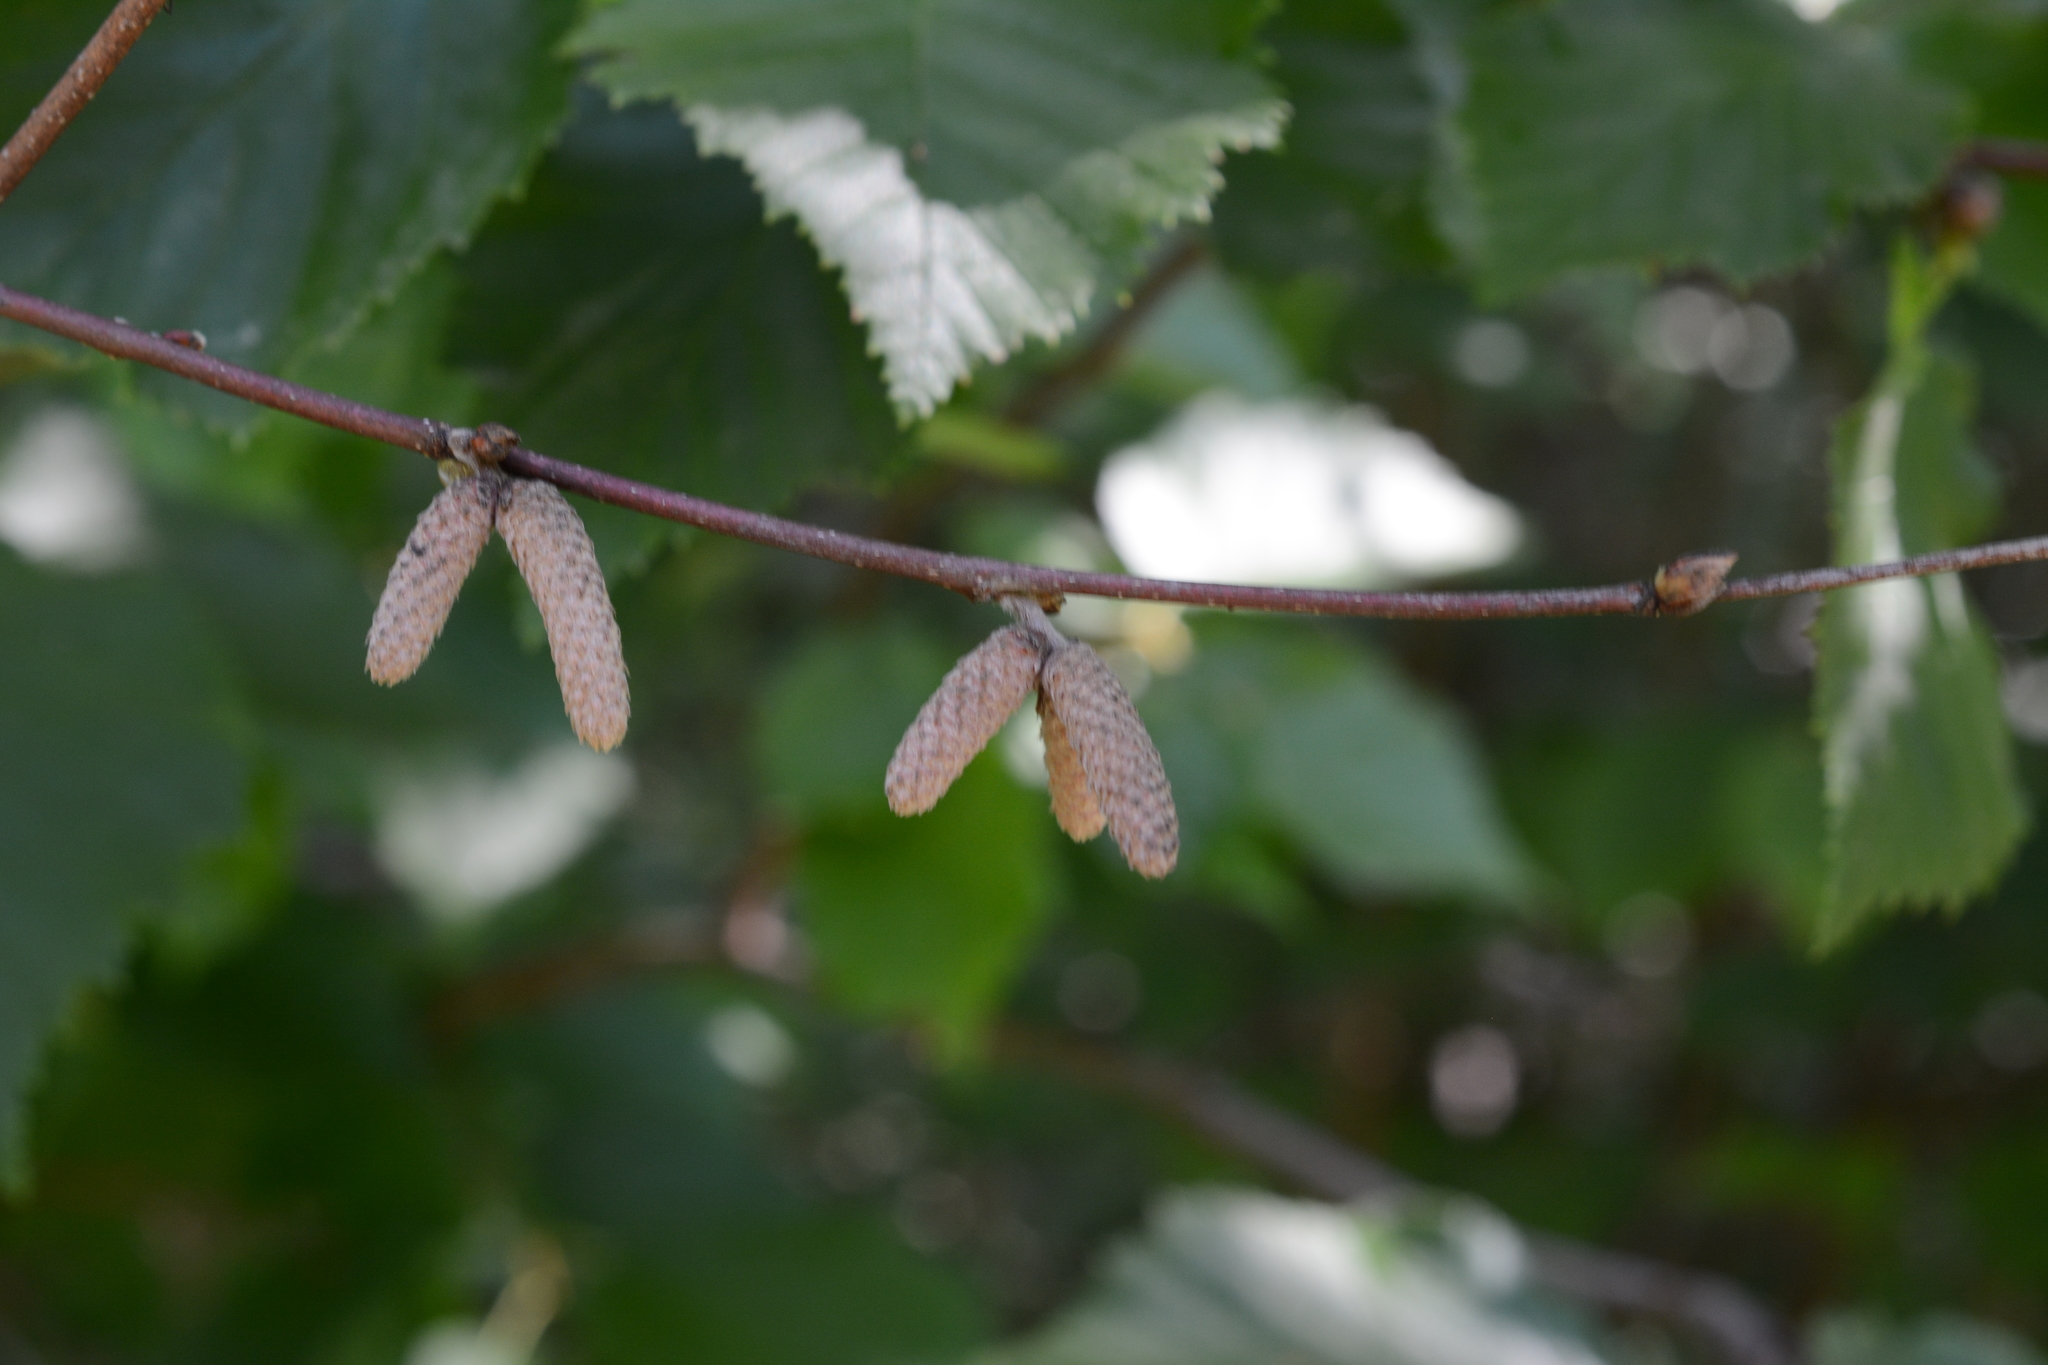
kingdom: Plantae
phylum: Tracheophyta
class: Magnoliopsida
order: Fagales
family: Betulaceae
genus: Corylus
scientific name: Corylus cornuta
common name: Beaked hazel
